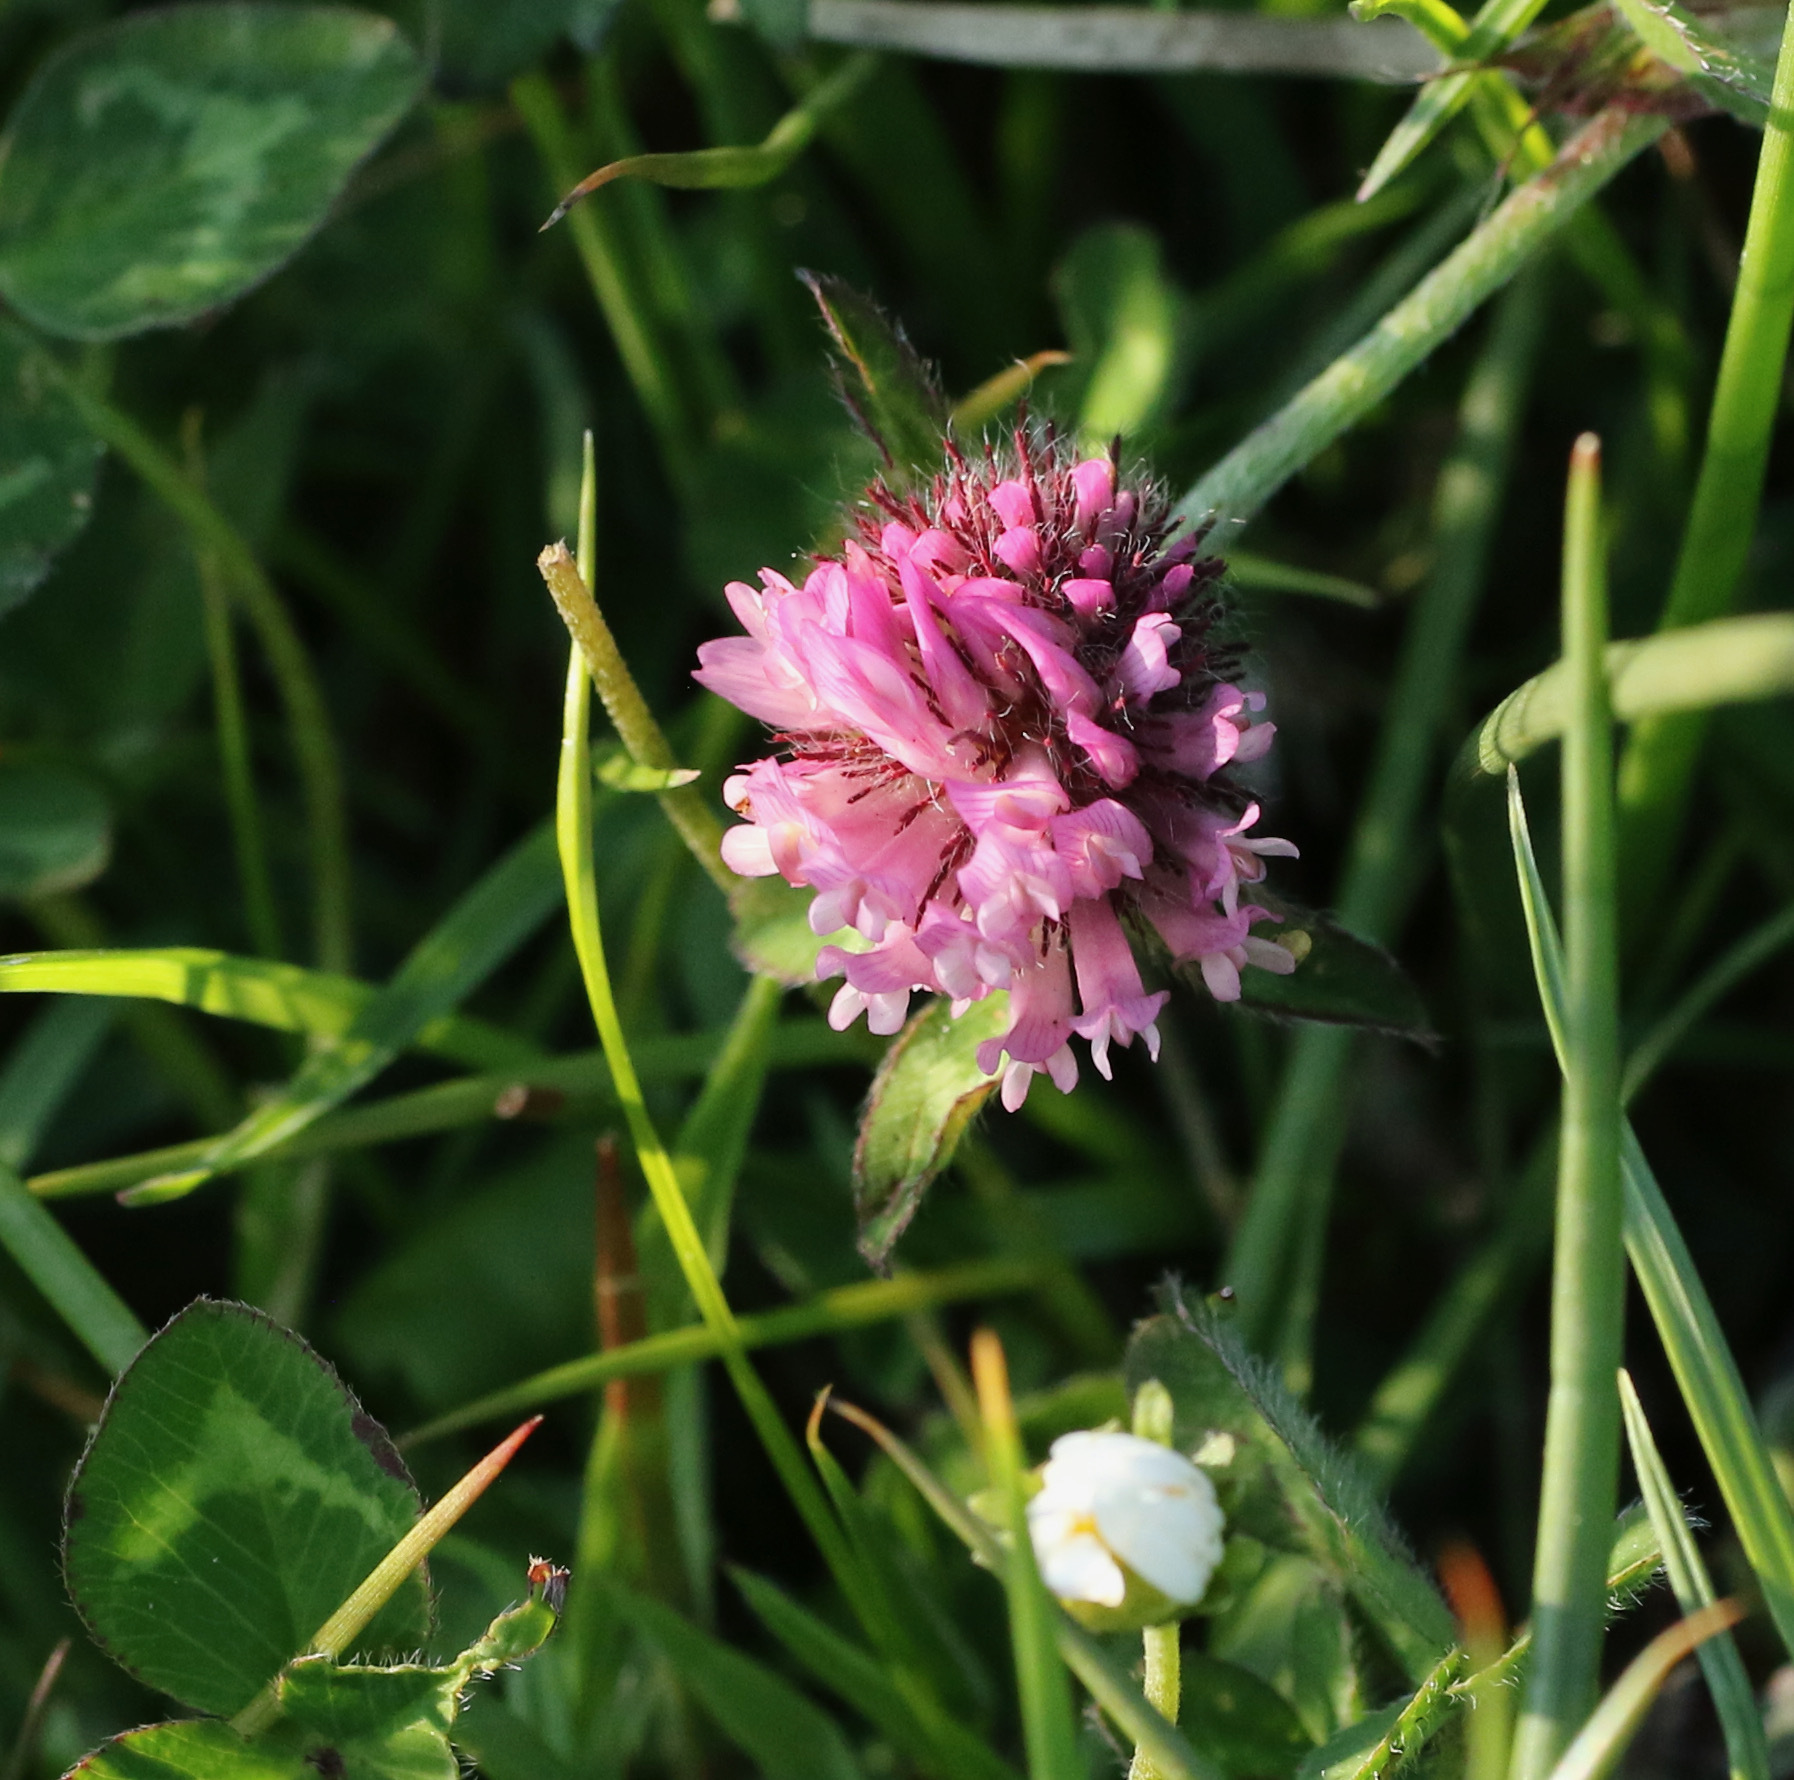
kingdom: Plantae
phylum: Tracheophyta
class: Magnoliopsida
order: Fabales
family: Fabaceae
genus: Trifolium
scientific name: Trifolium pratense
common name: Red clover
